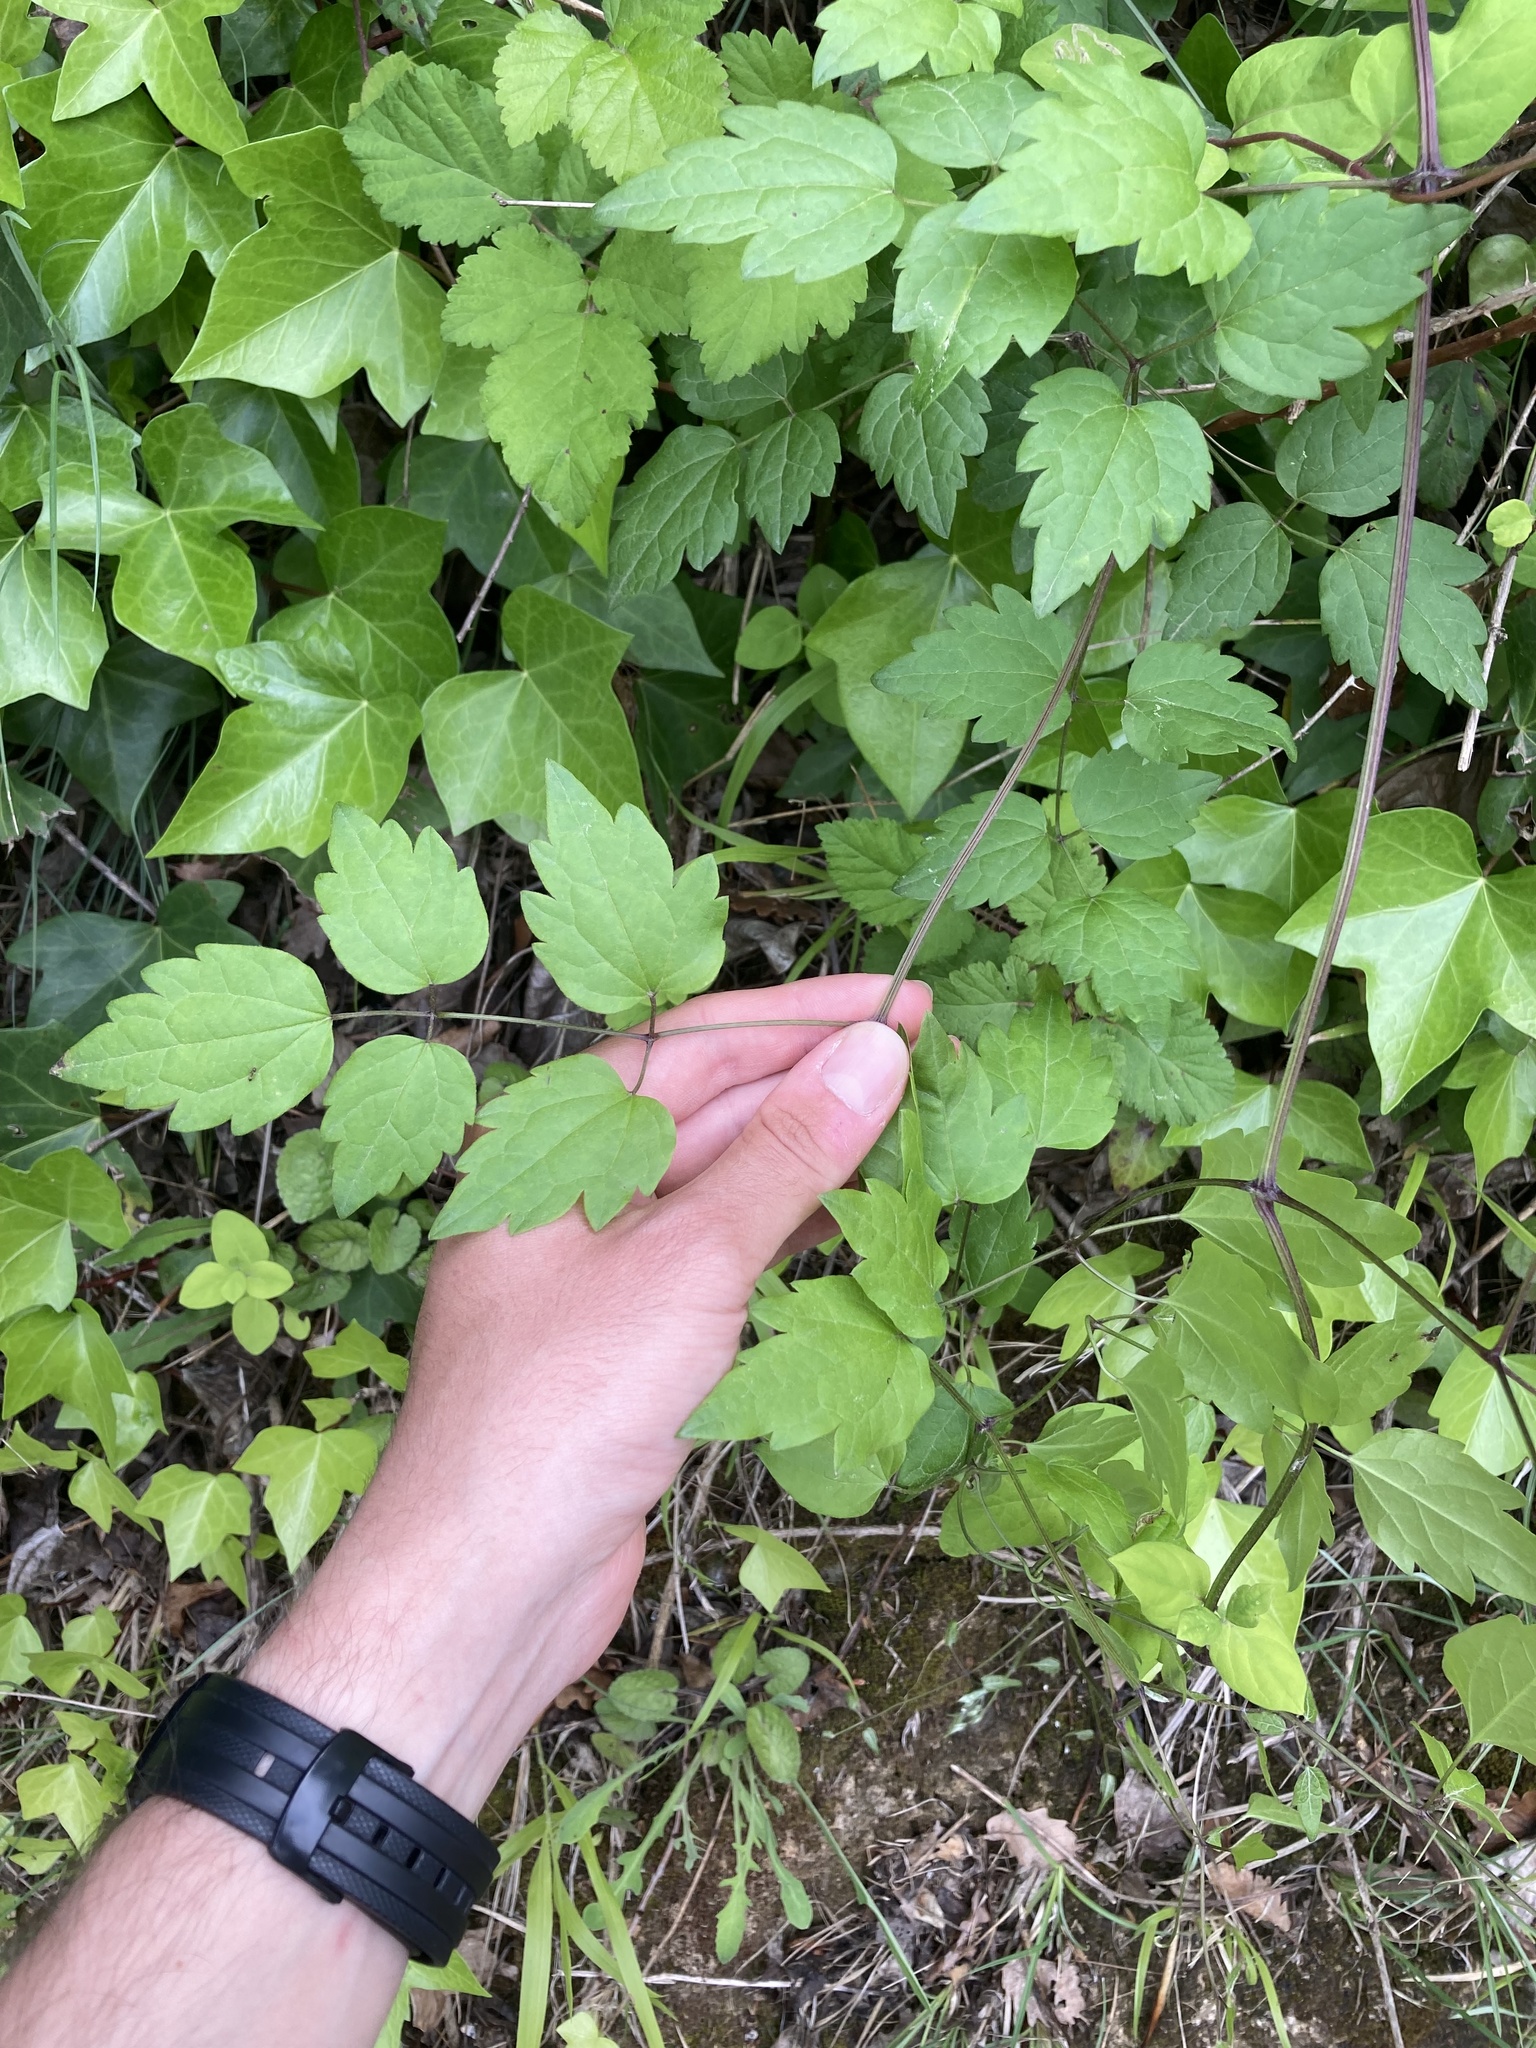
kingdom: Plantae
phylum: Tracheophyta
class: Magnoliopsida
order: Ranunculales
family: Ranunculaceae
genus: Clematis
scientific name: Clematis vitalba
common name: Evergreen clematis
